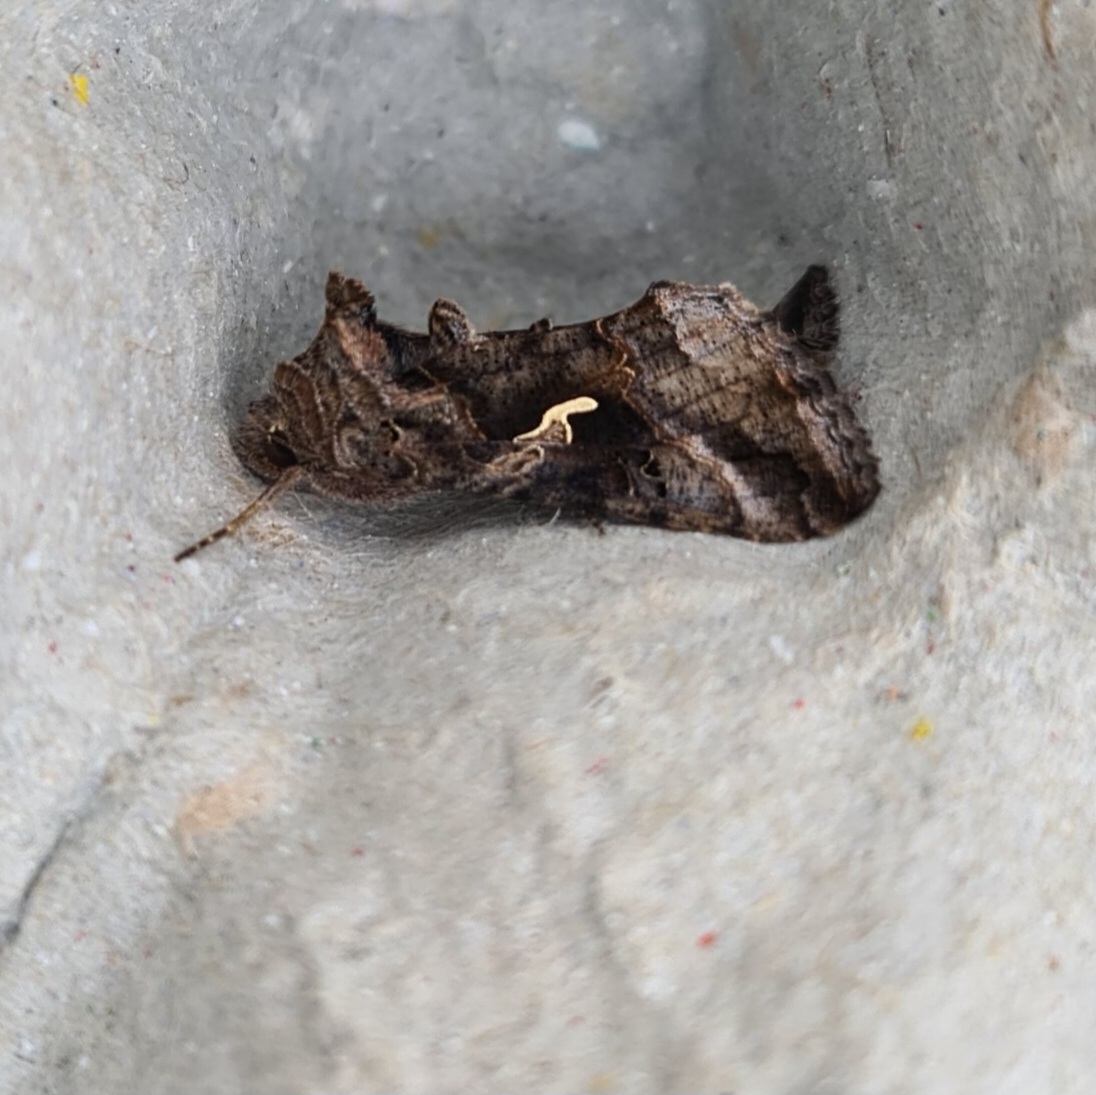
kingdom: Animalia
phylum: Arthropoda
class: Insecta
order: Lepidoptera
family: Noctuidae
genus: Autographa
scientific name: Autographa gamma
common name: Silver y
